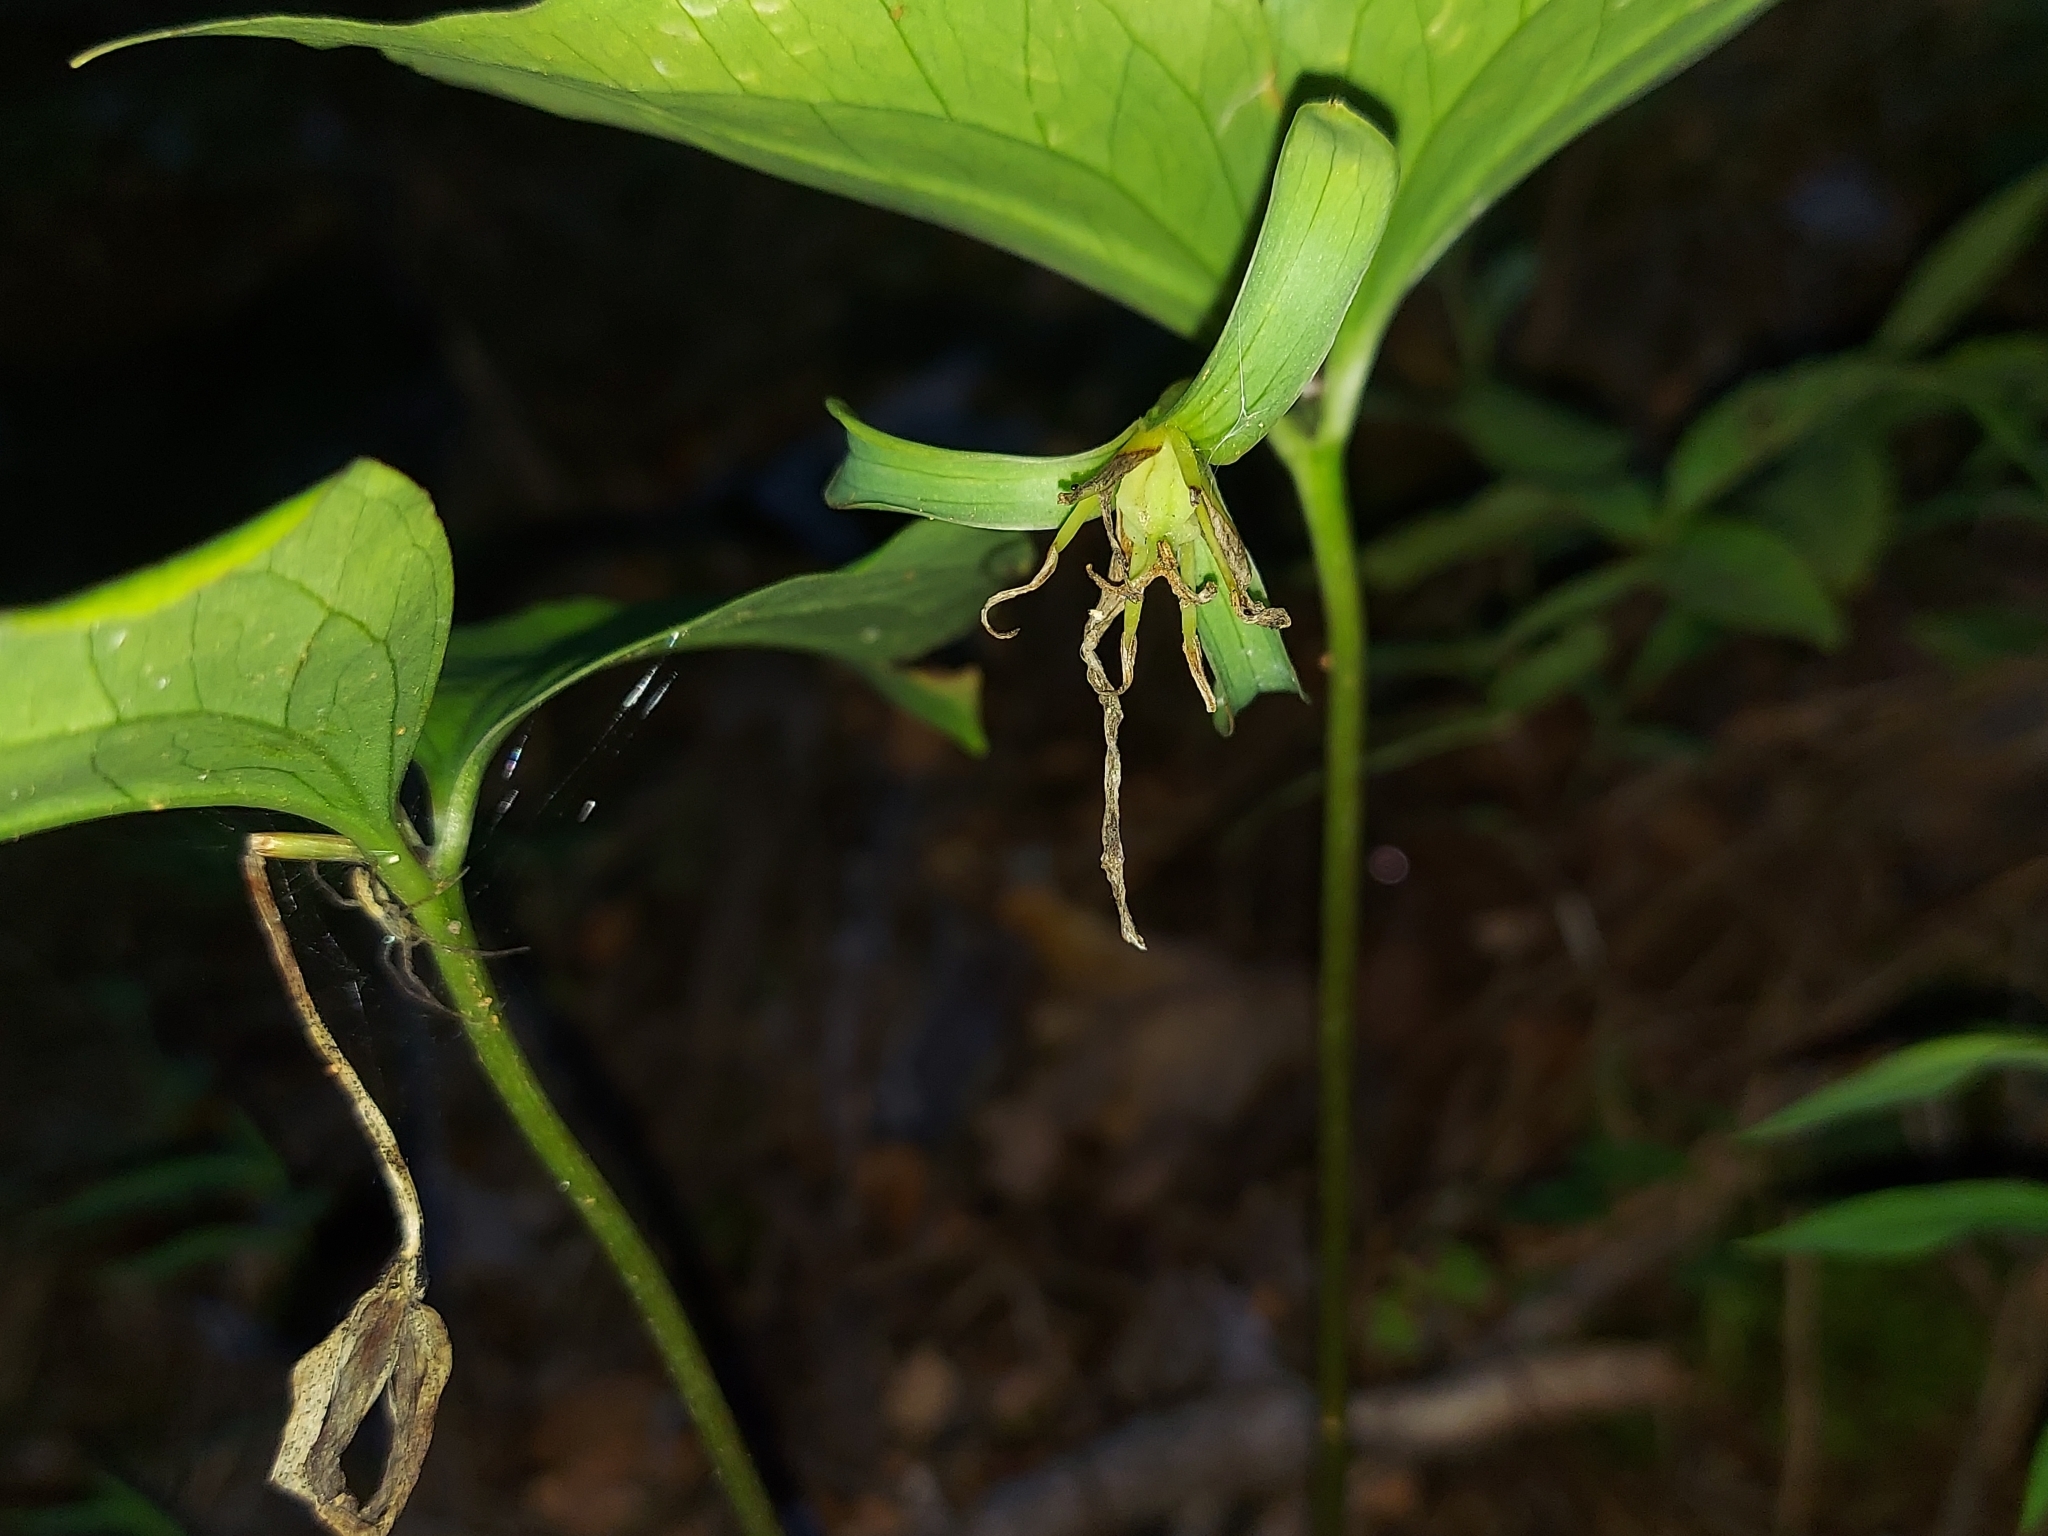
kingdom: Plantae
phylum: Tracheophyta
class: Liliopsida
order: Liliales
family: Melanthiaceae
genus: Trillium
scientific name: Trillium catesbaei
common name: Bashful trillium
